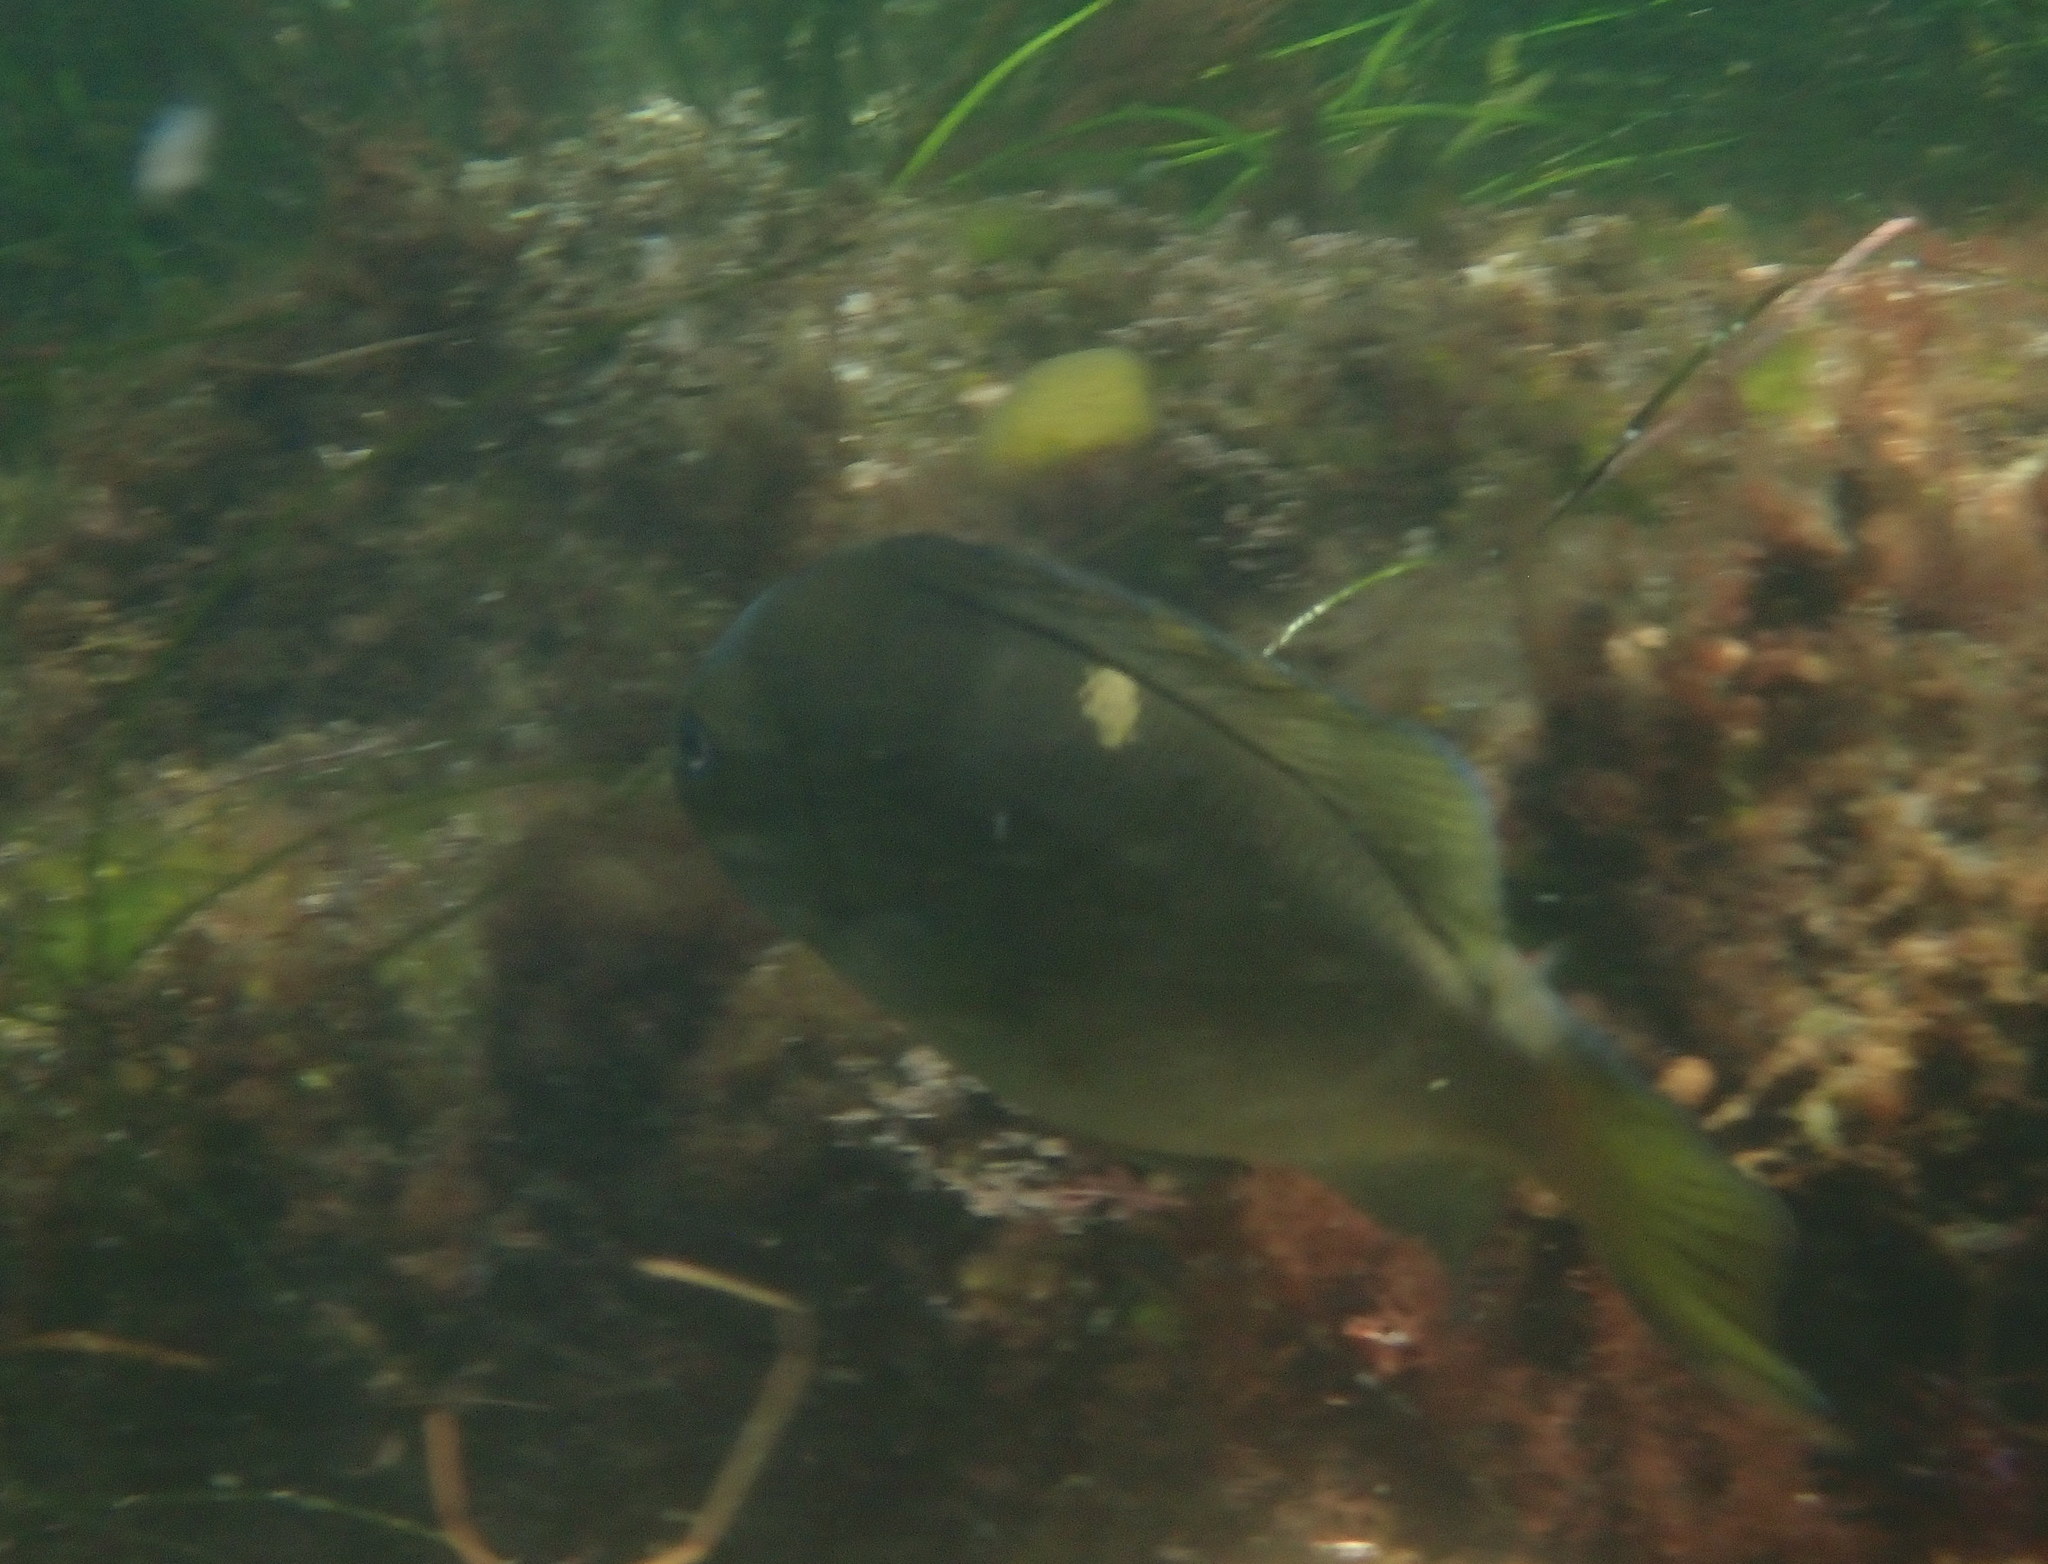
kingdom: Animalia
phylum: Chordata
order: Perciformes
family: Kyphosidae
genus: Girella
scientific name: Girella nigricans
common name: Opaleye
